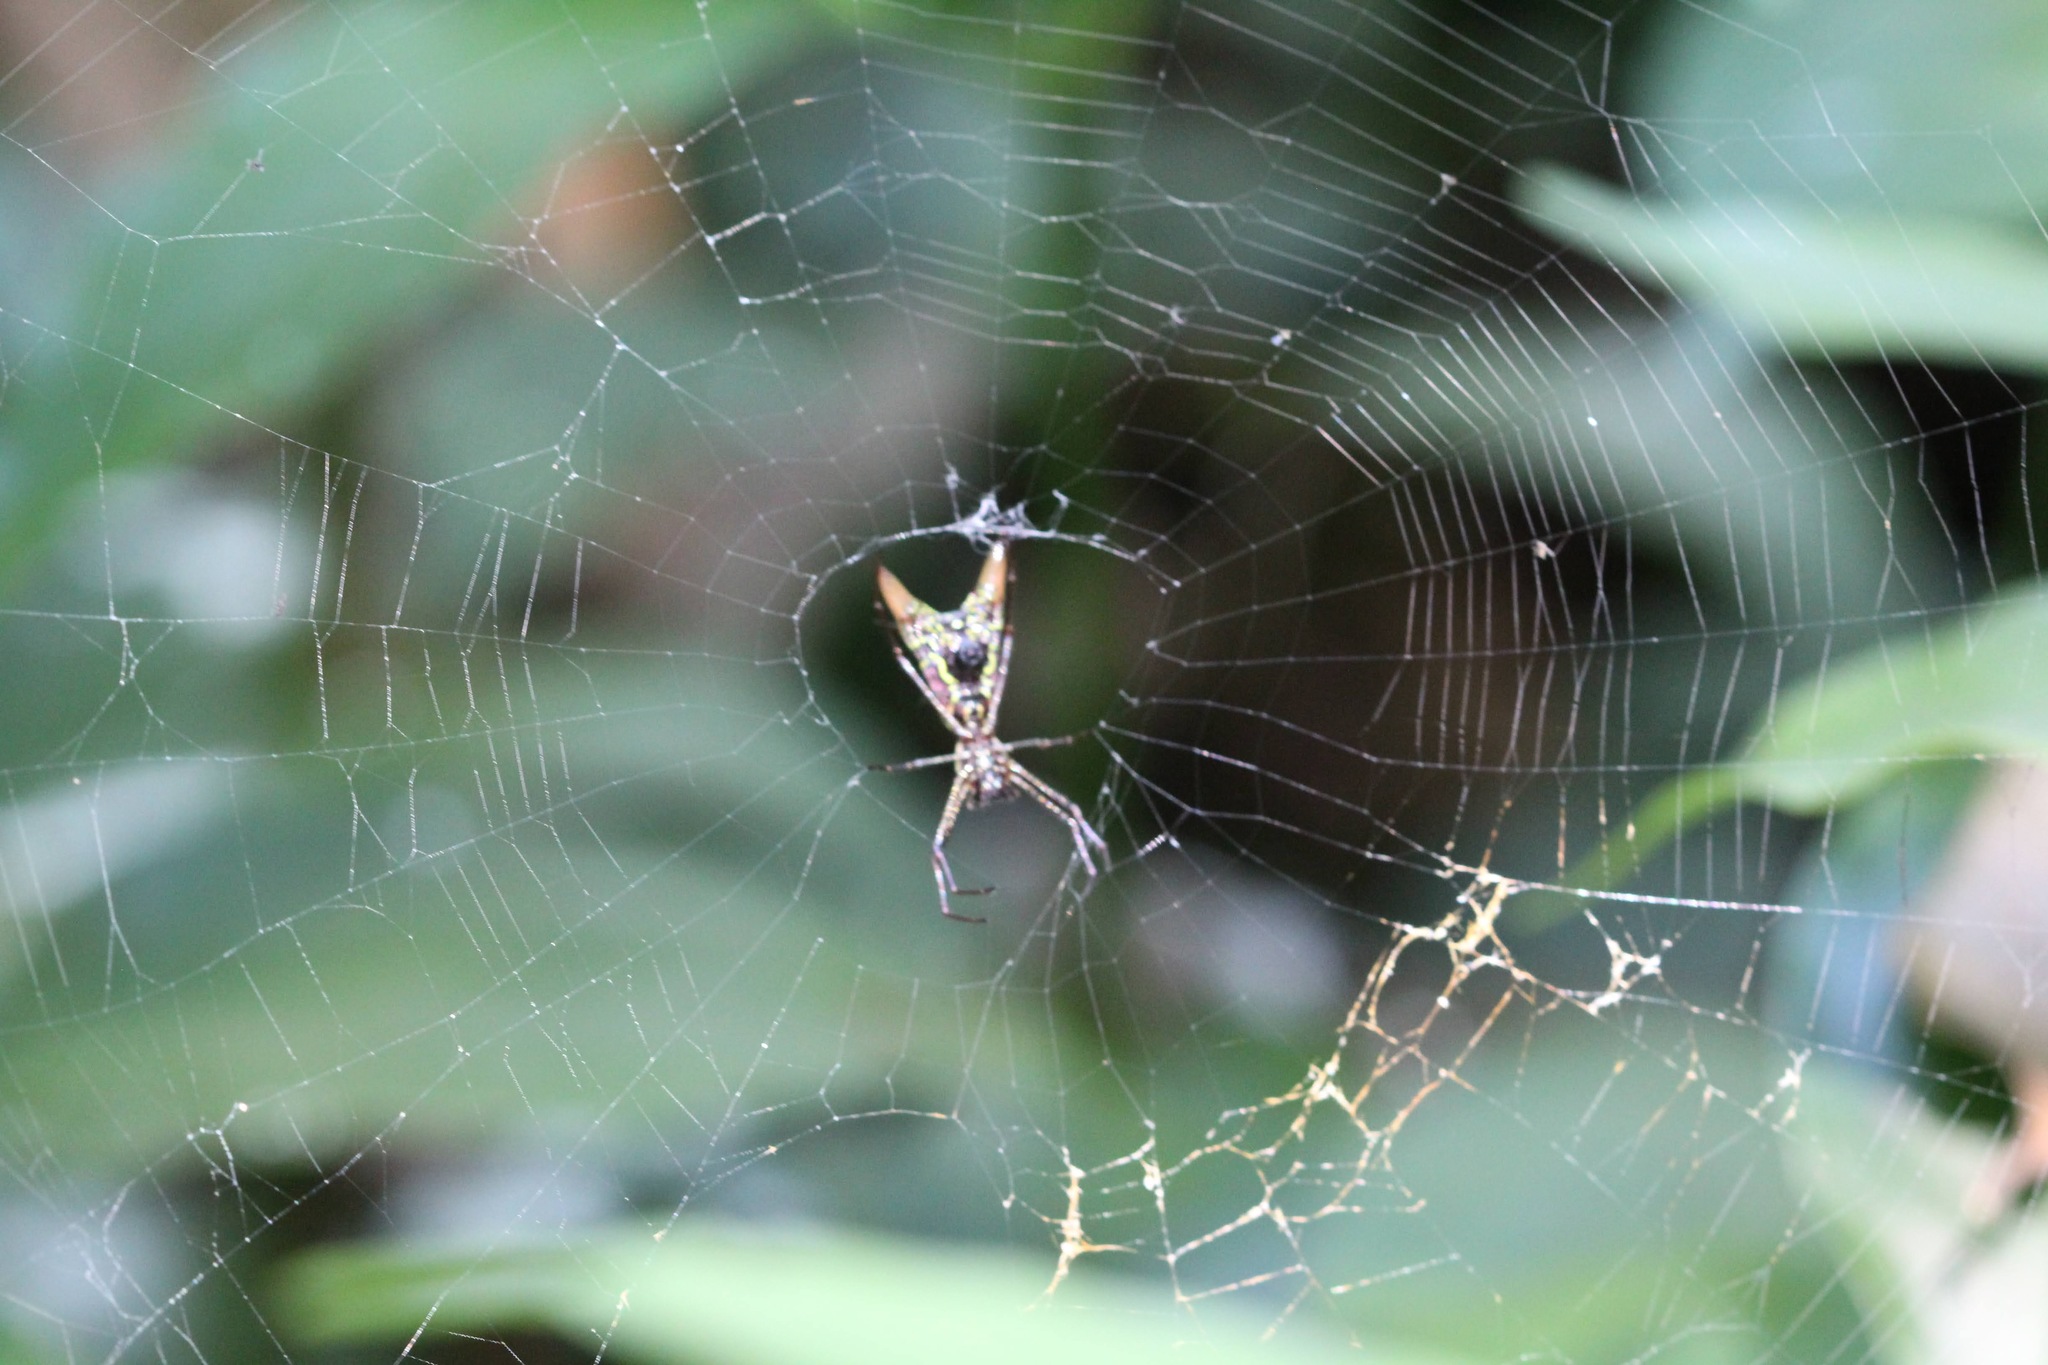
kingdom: Animalia
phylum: Arthropoda
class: Arachnida
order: Araneae
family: Araneidae
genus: Micrathena
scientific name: Micrathena sexspinosa
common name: Orb weavers
